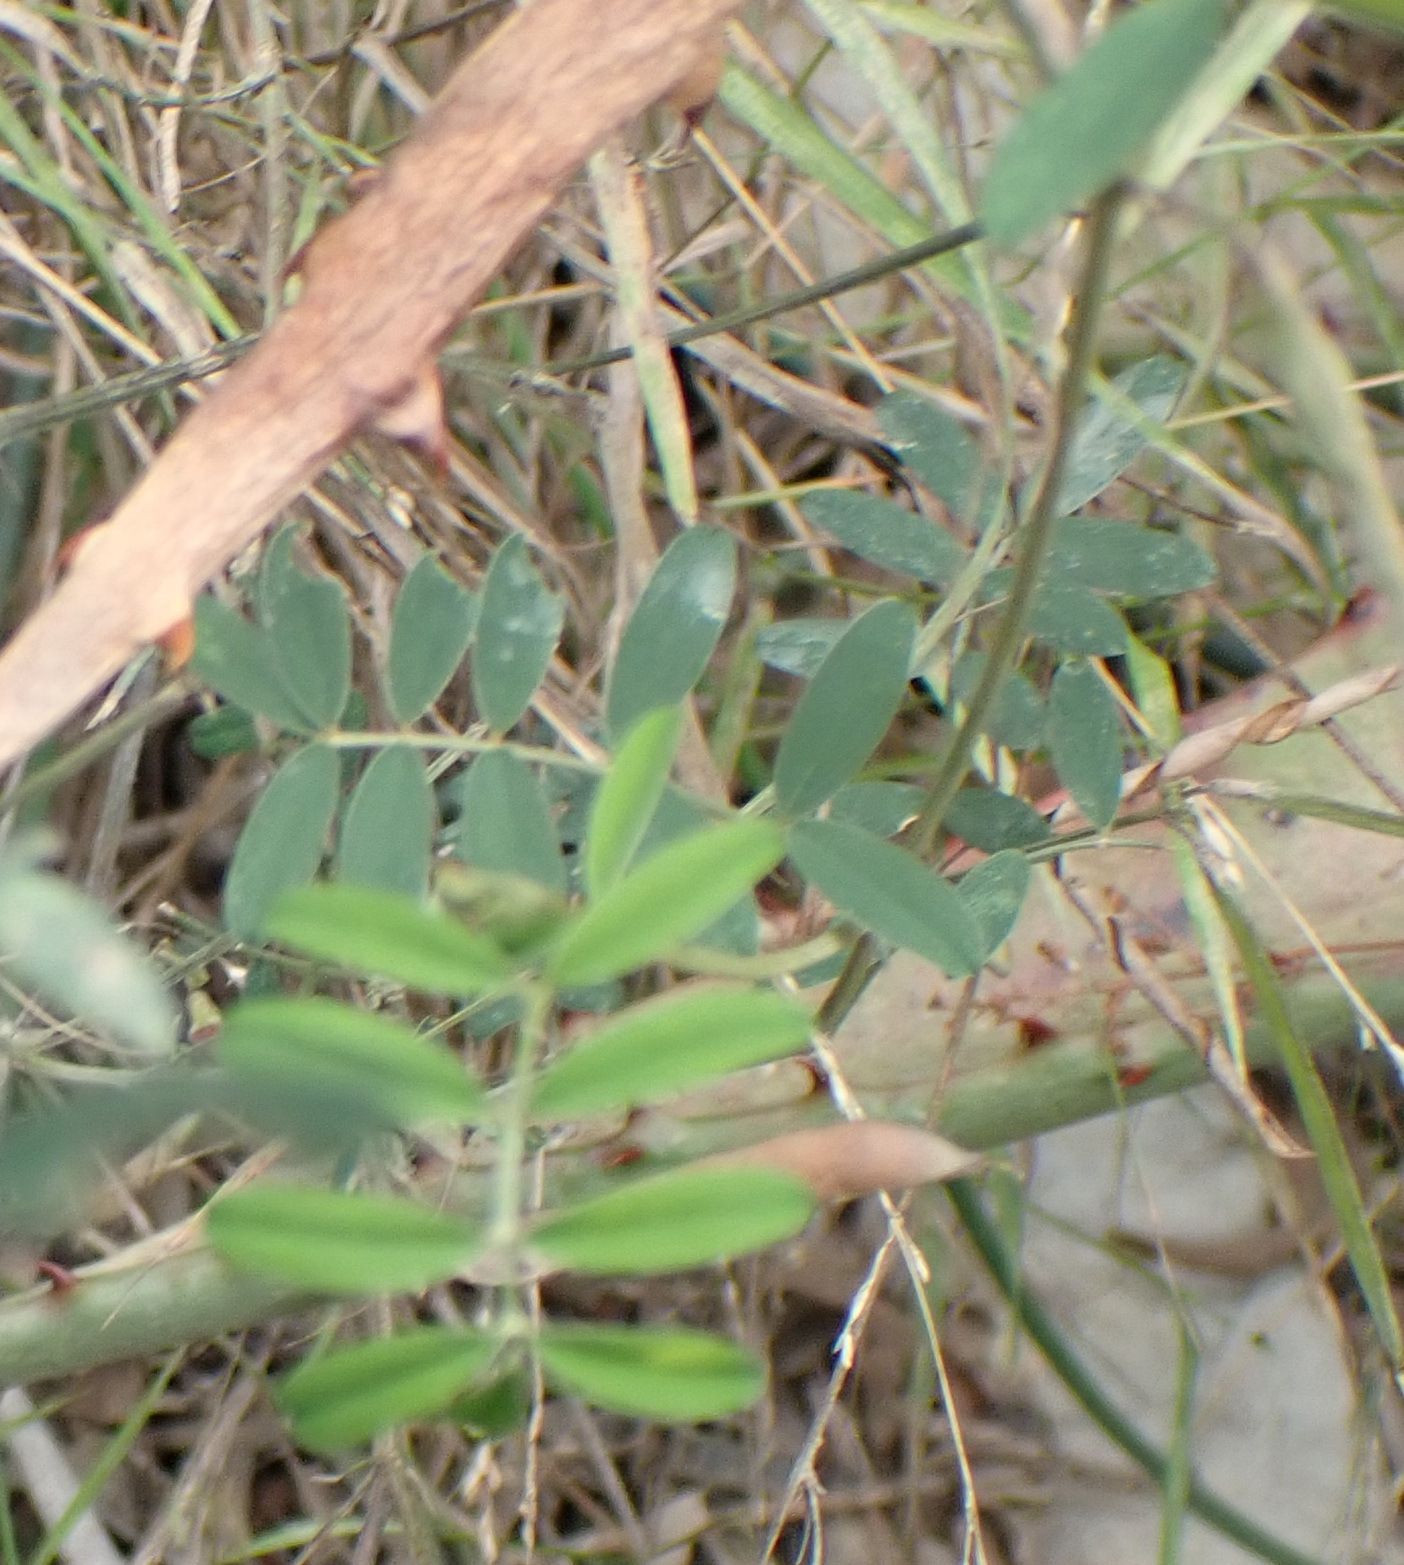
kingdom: Plantae
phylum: Tracheophyta
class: Magnoliopsida
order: Fabales
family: Fabaceae
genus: Tephrosia
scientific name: Tephrosia capensis
